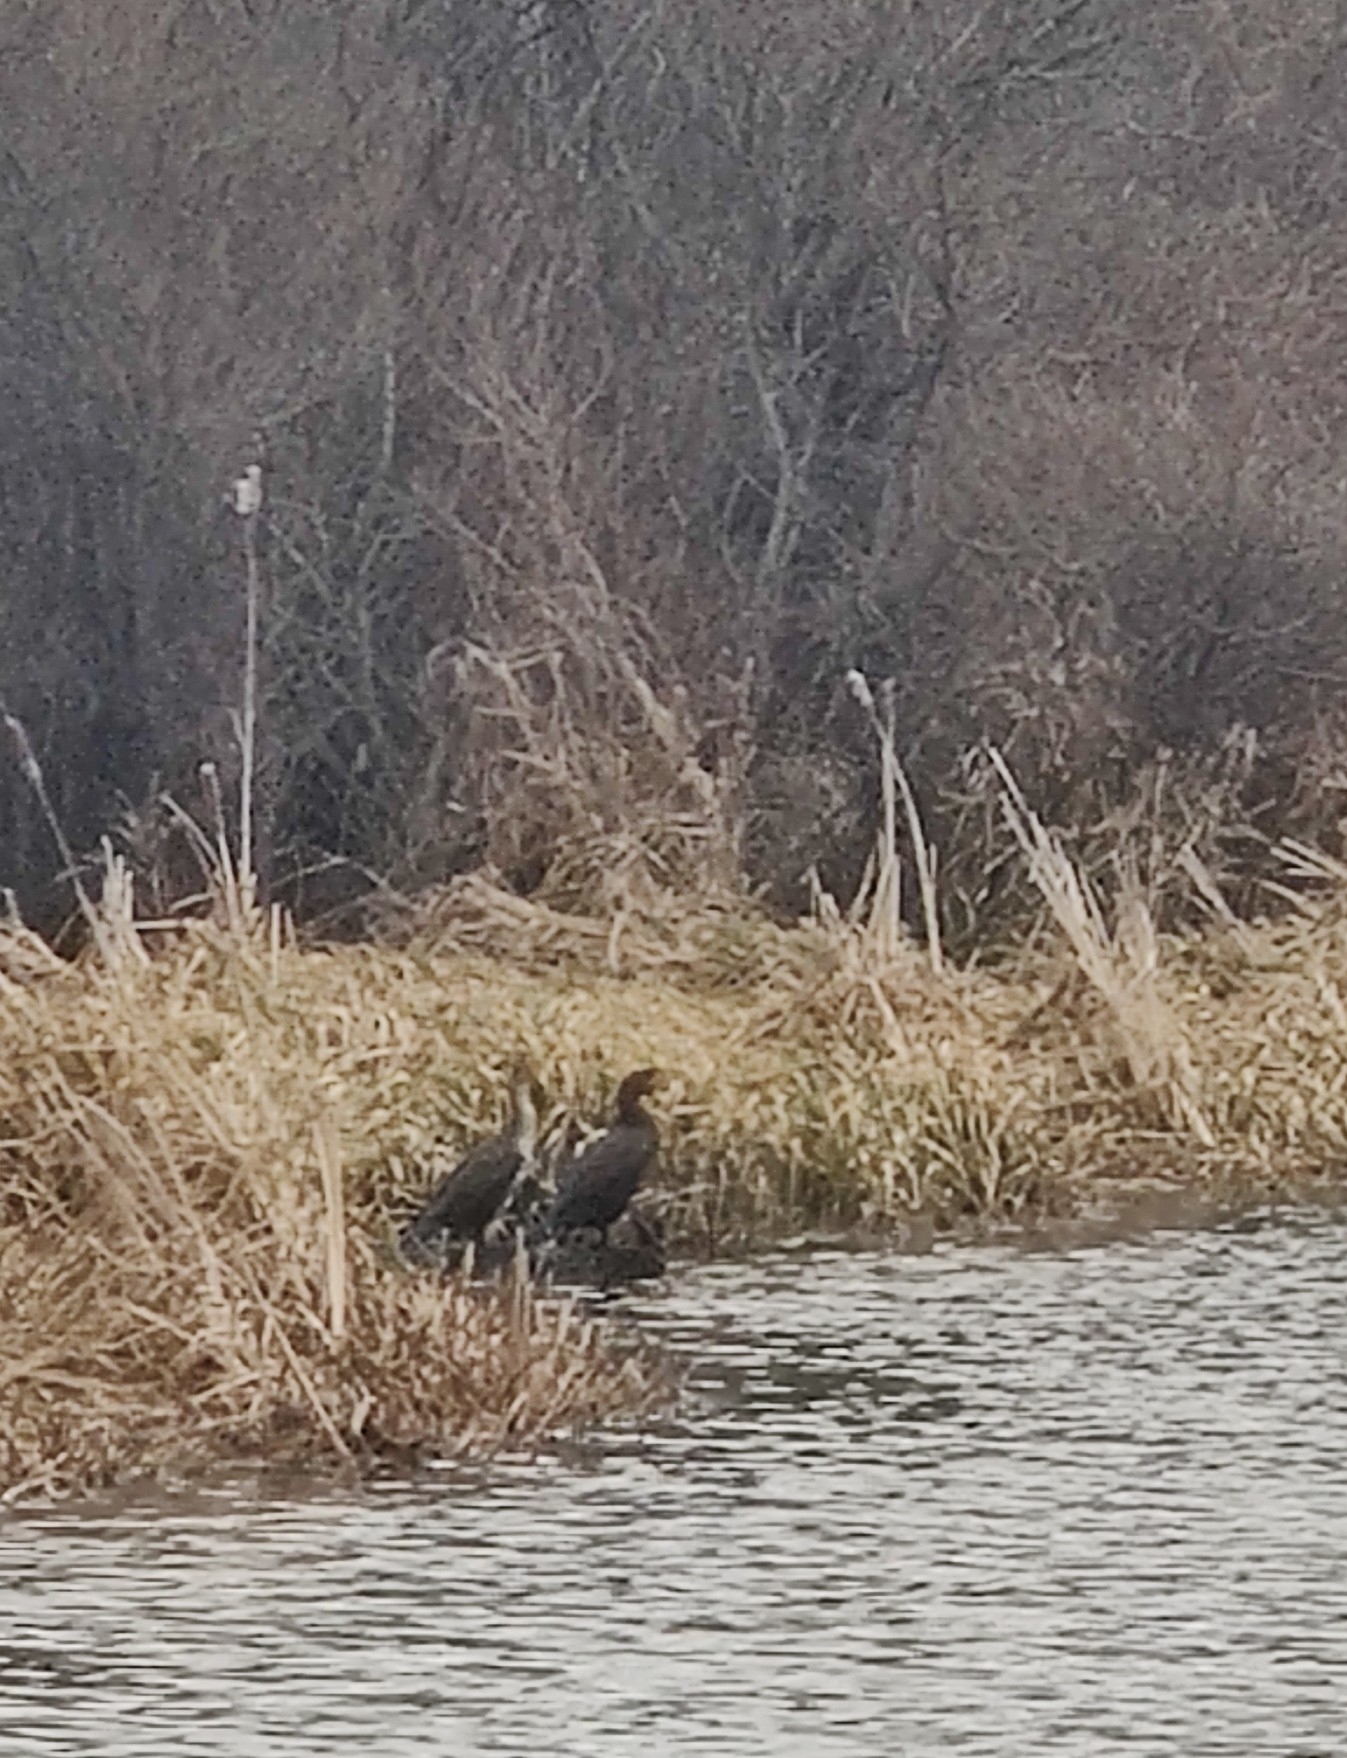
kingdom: Animalia
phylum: Chordata
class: Aves
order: Suliformes
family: Phalacrocoracidae
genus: Phalacrocorax
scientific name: Phalacrocorax auritus
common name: Double-crested cormorant
